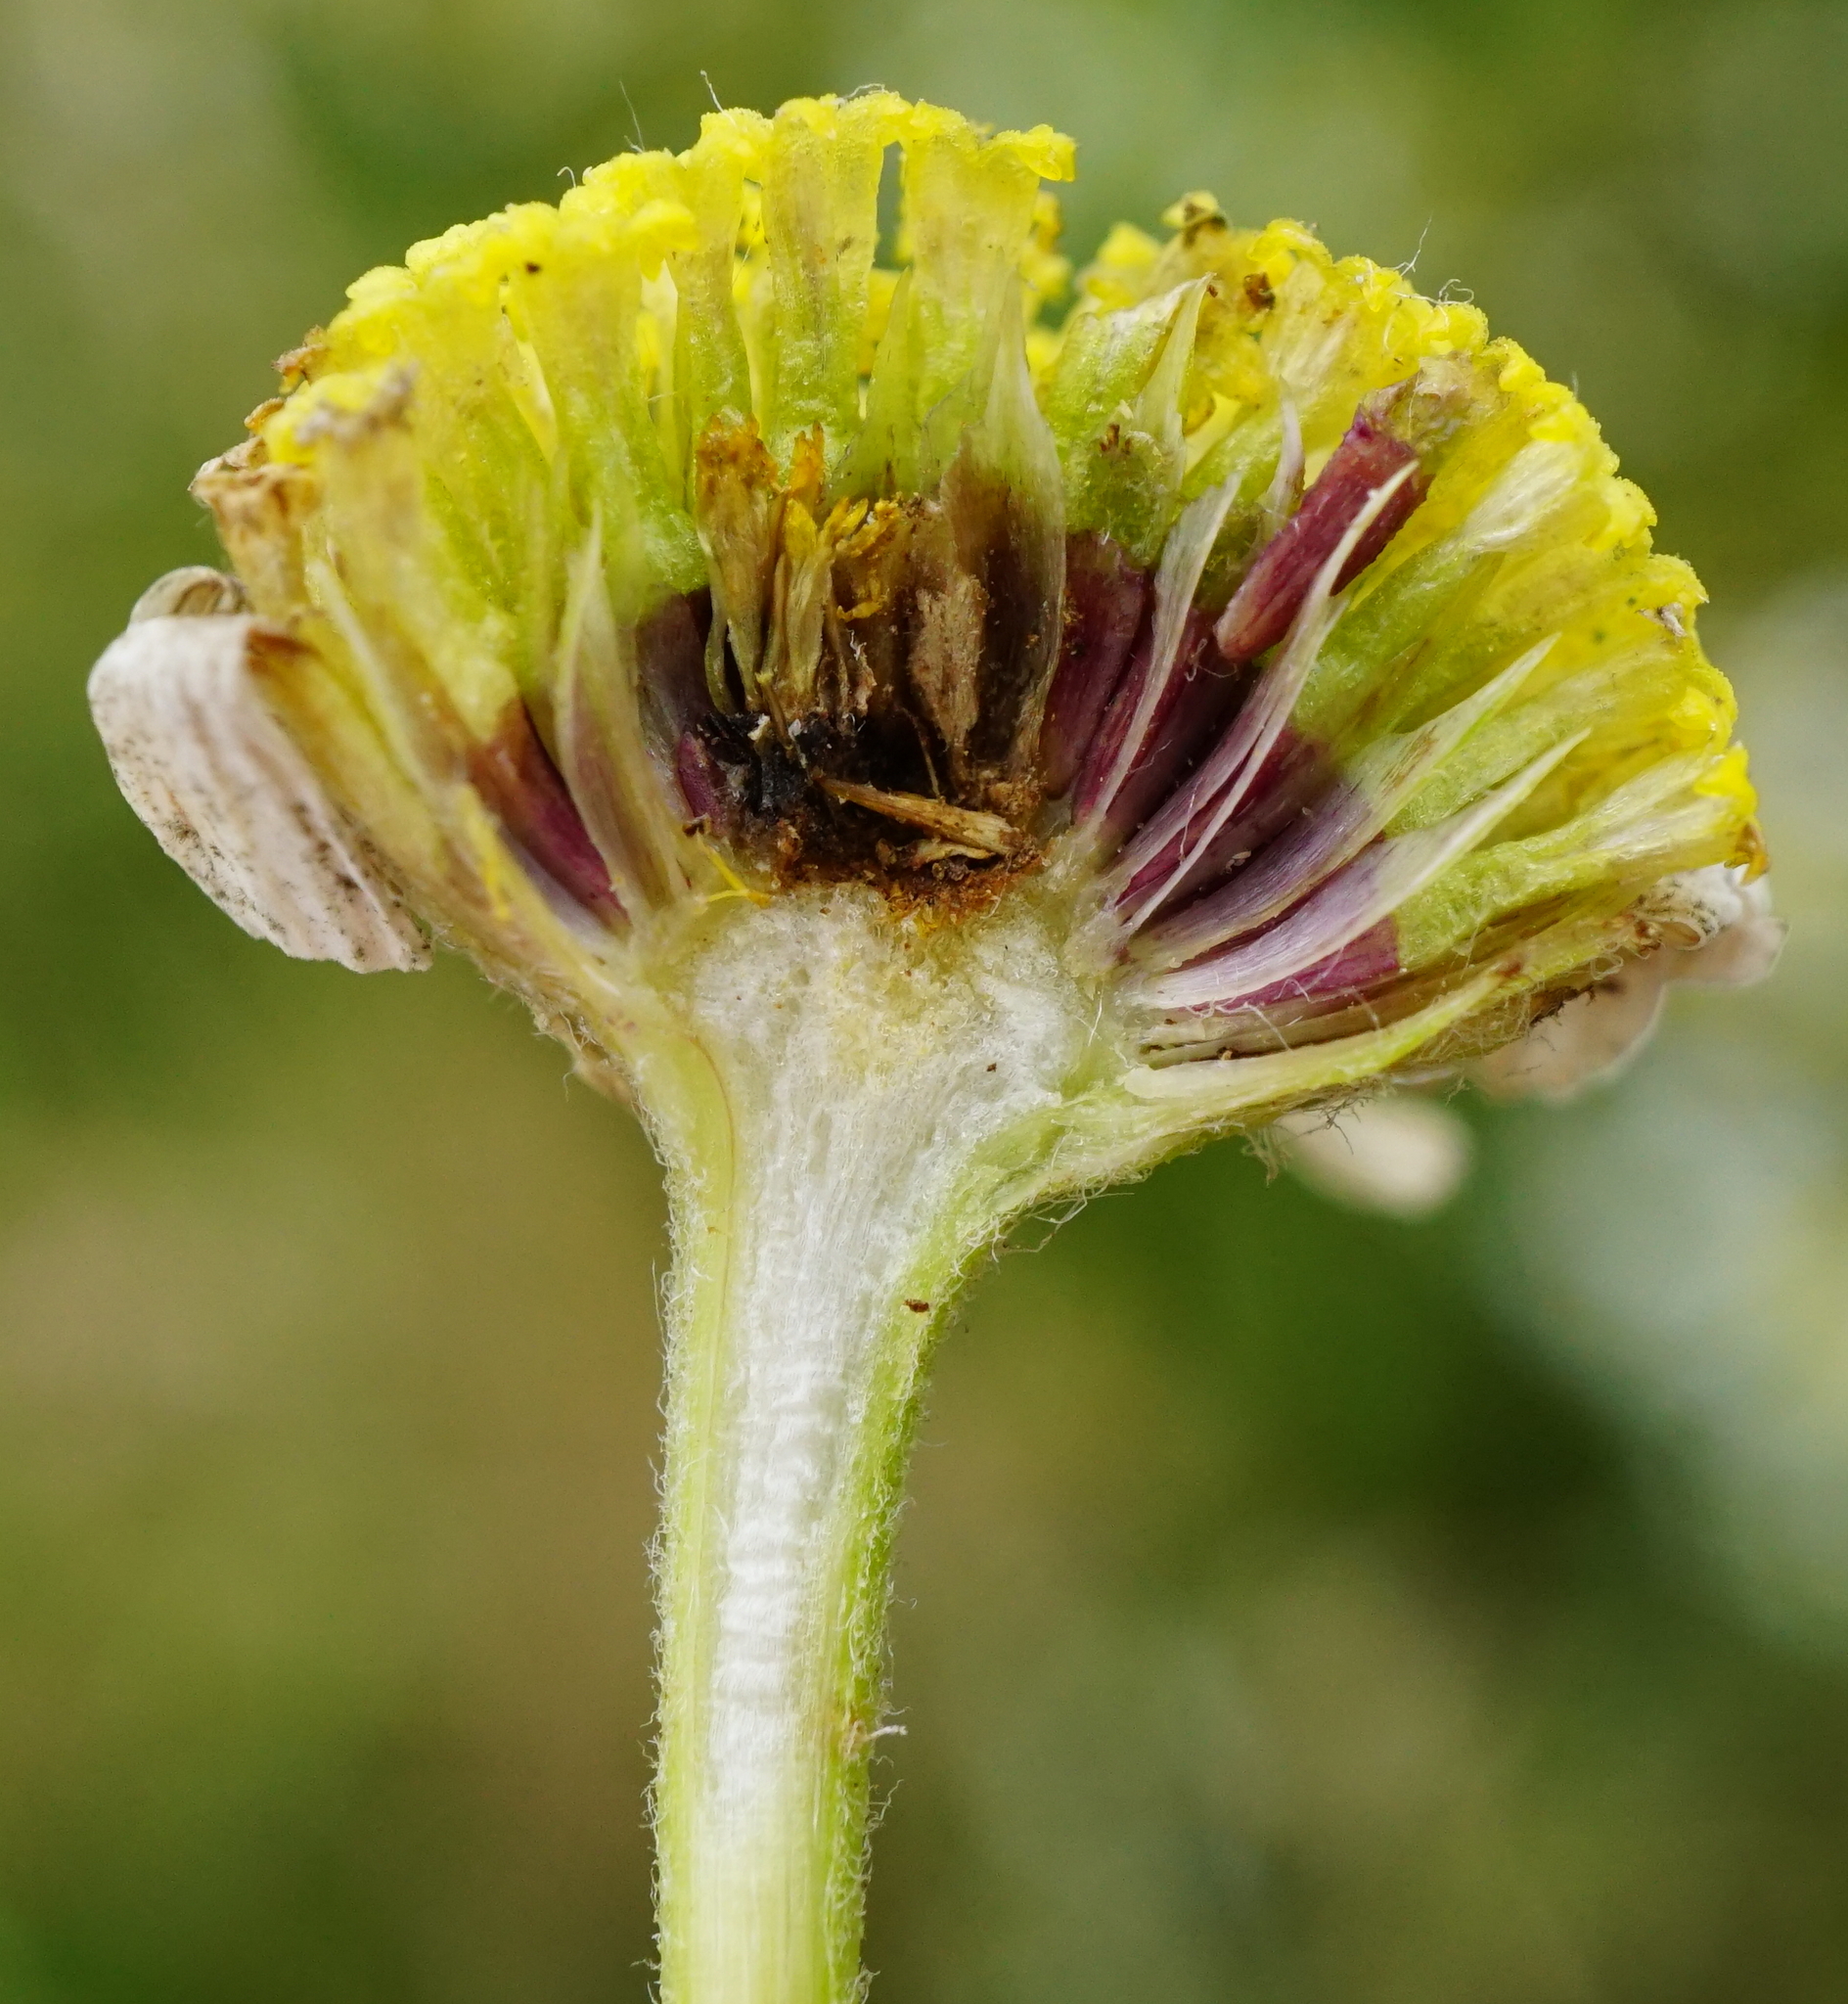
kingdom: Plantae
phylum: Tracheophyta
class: Magnoliopsida
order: Asterales
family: Asteraceae
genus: Cota
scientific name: Cota austriaca
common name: Austrian chamomile
